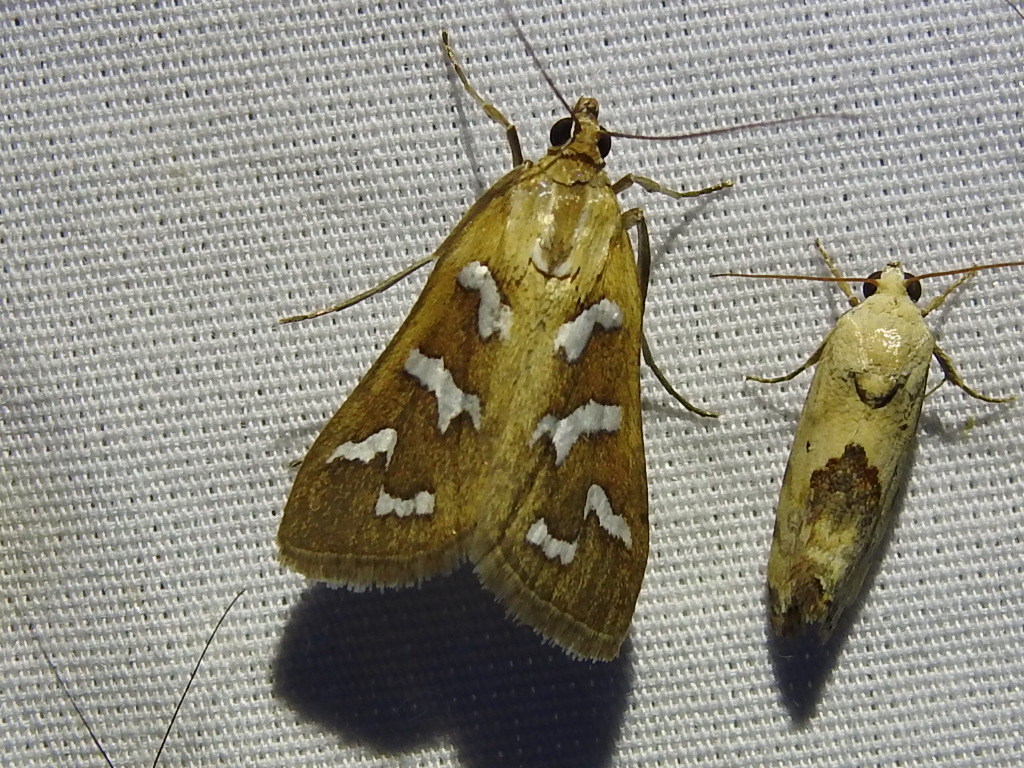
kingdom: Animalia
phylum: Arthropoda
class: Insecta
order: Lepidoptera
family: Crambidae
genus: Diastictis
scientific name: Diastictis fracturalis
